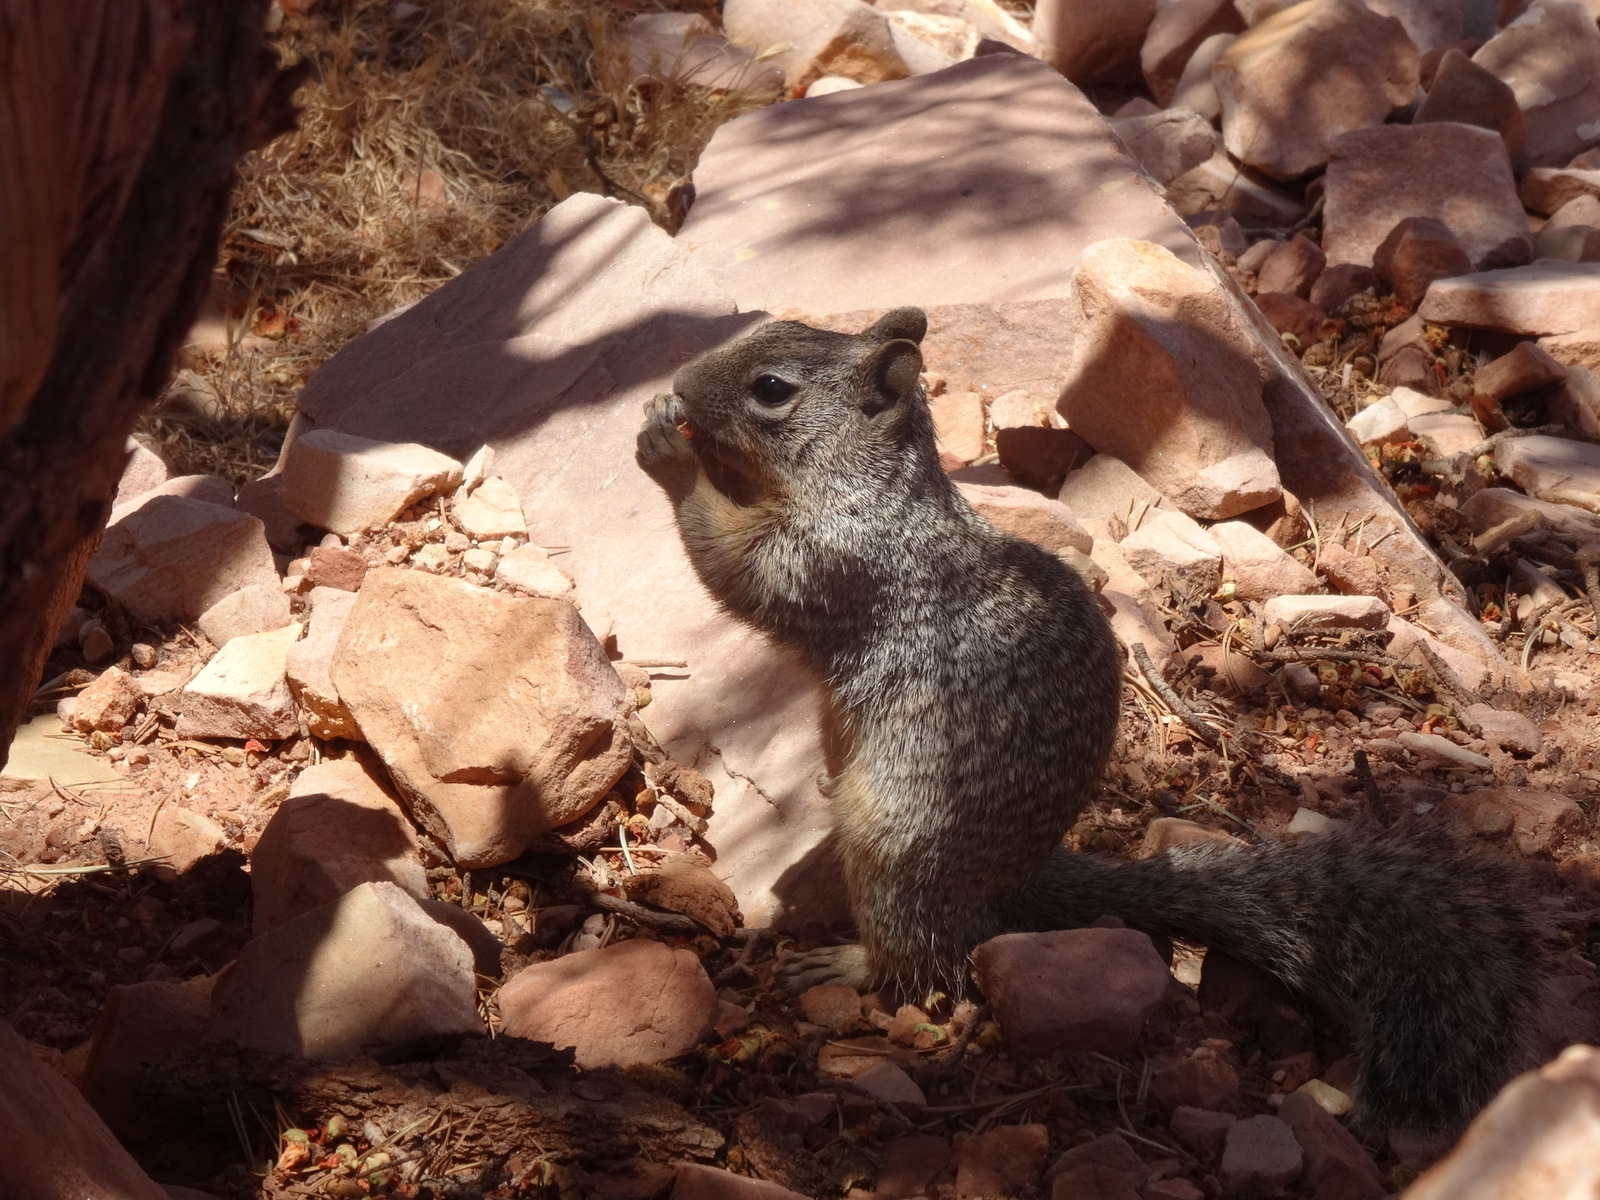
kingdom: Animalia
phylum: Chordata
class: Mammalia
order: Rodentia
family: Sciuridae
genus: Otospermophilus
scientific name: Otospermophilus variegatus
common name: Rock squirrel
